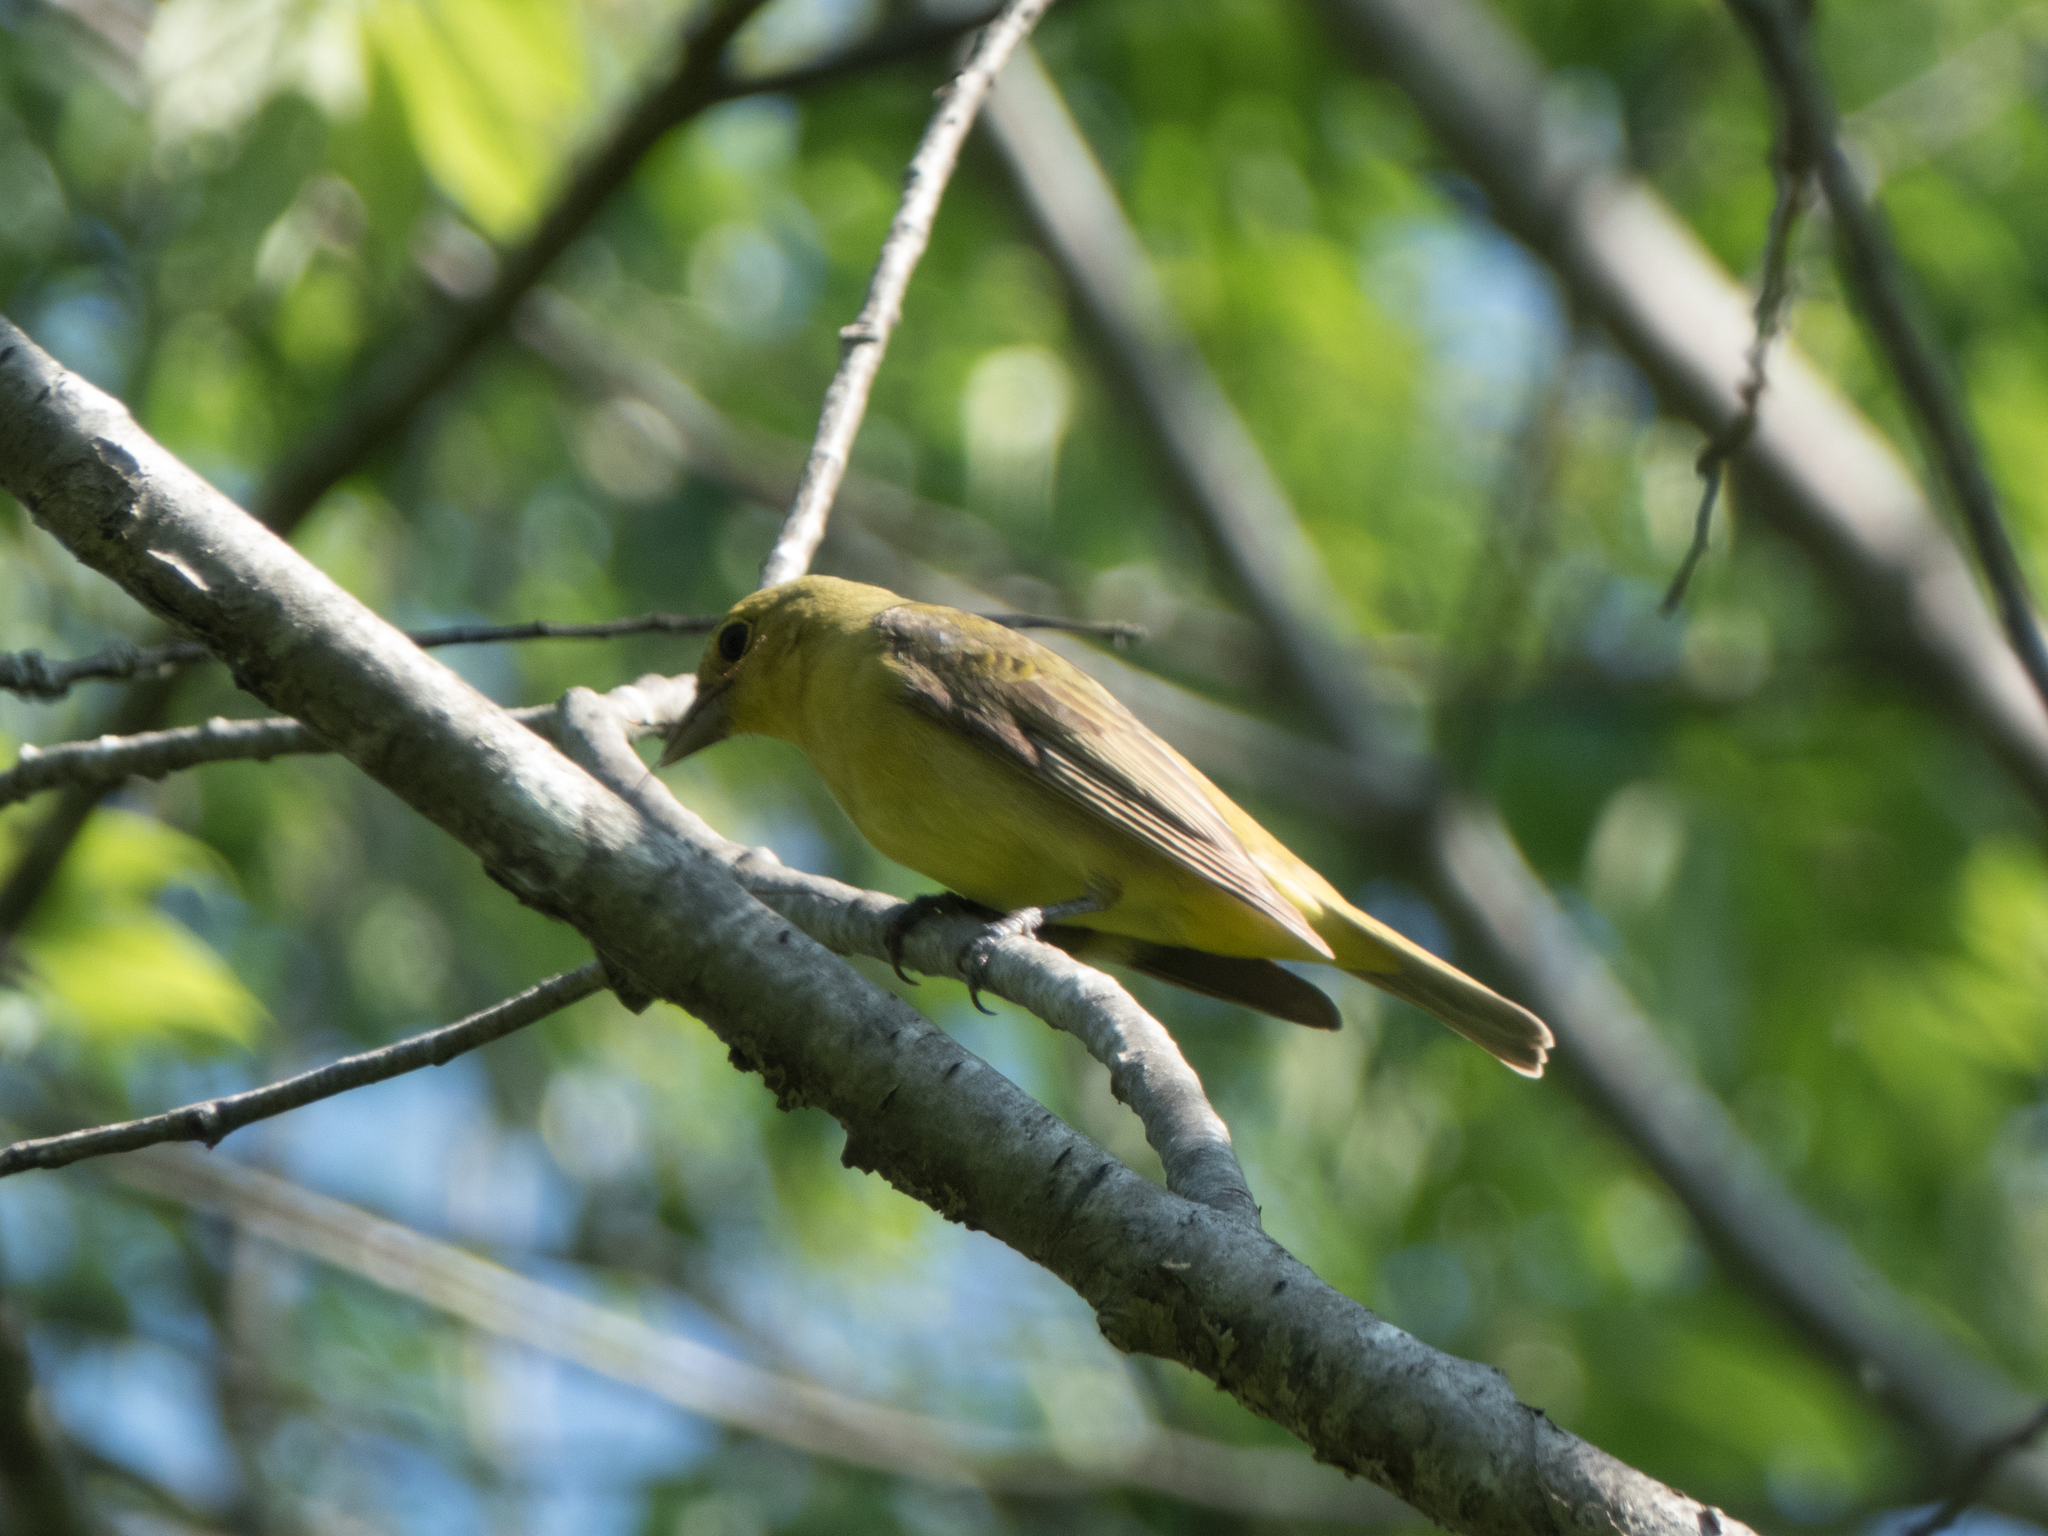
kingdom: Animalia
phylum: Chordata
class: Aves
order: Passeriformes
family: Cardinalidae
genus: Piranga
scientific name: Piranga olivacea
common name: Scarlet tanager
